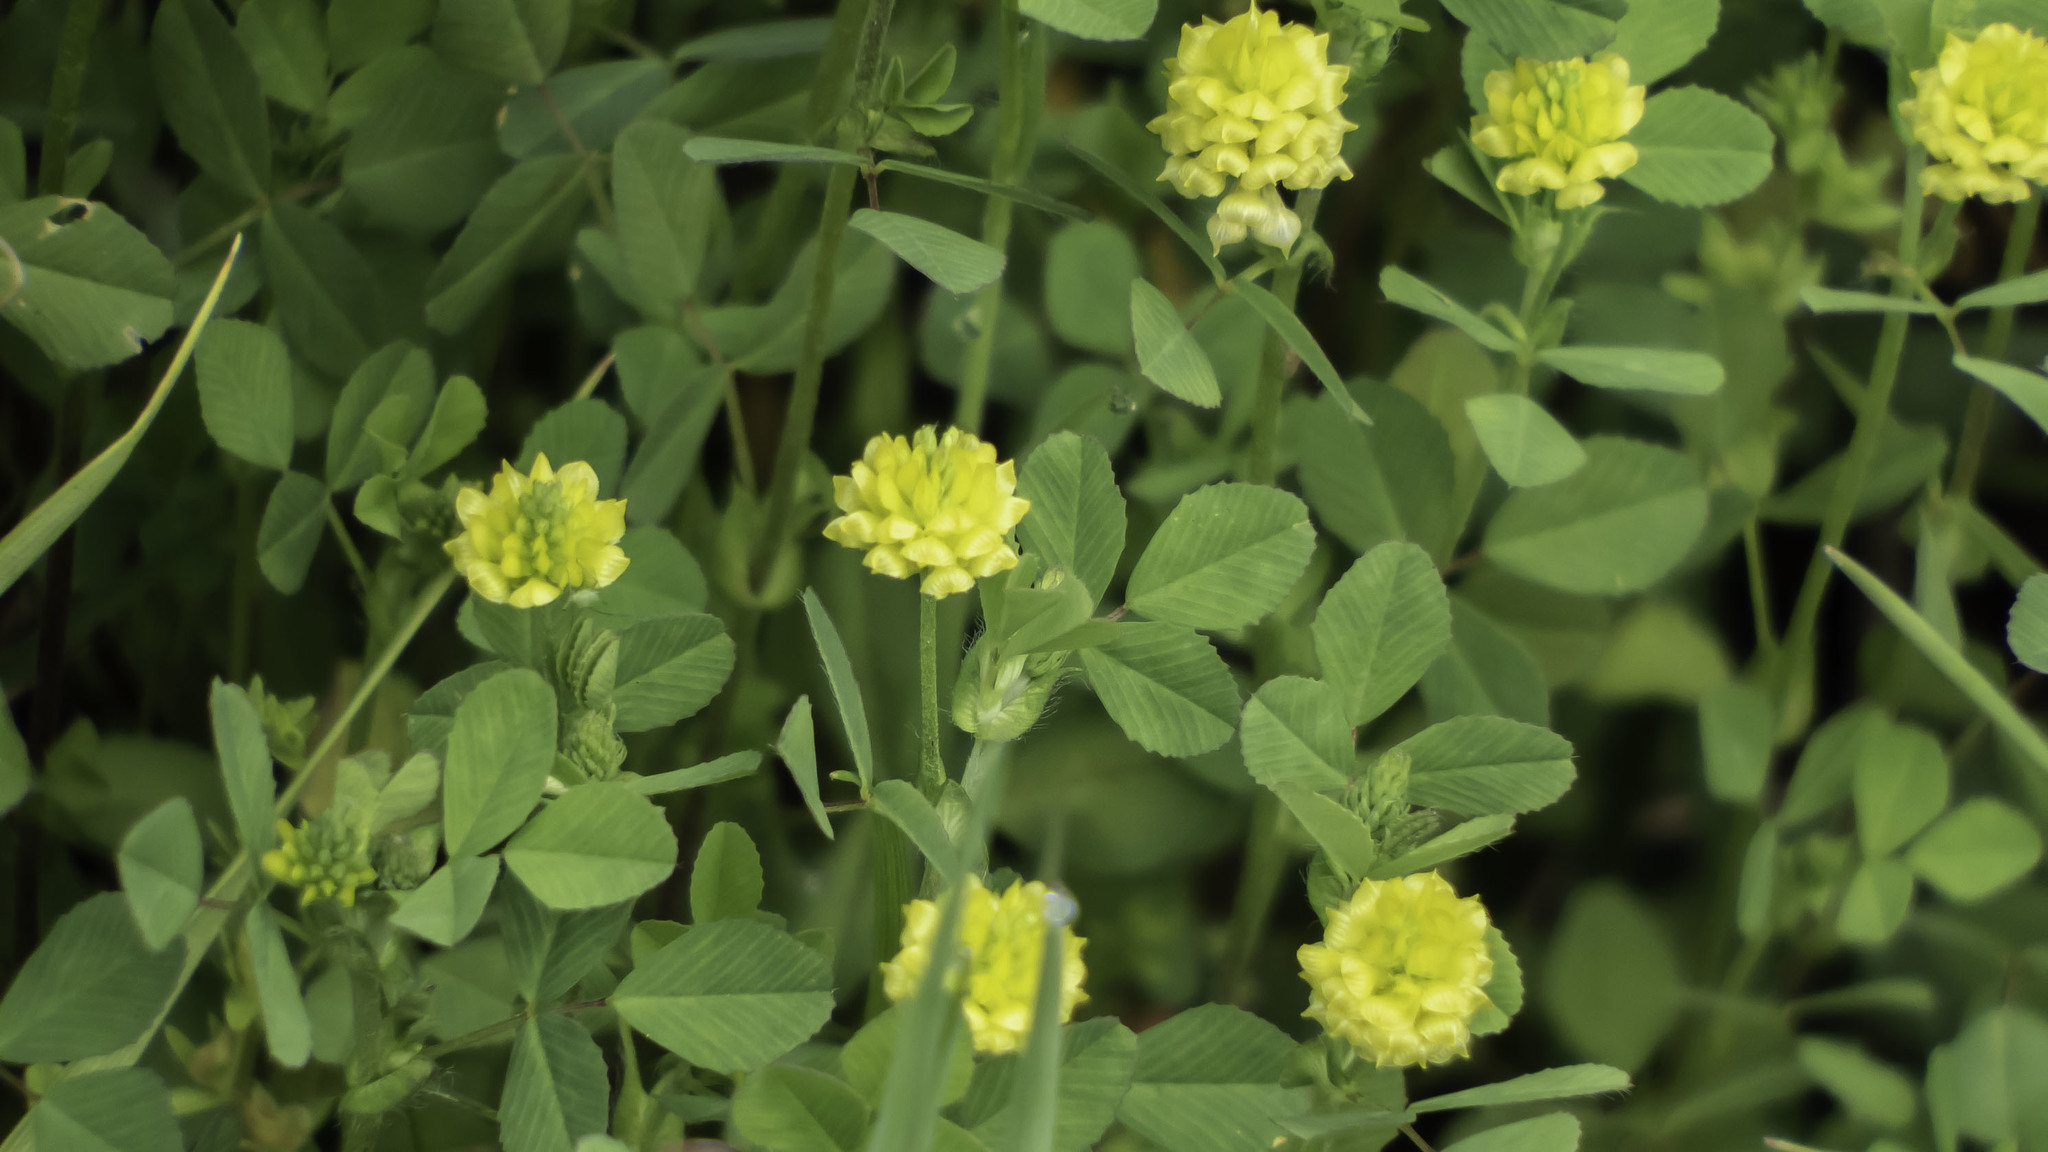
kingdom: Plantae
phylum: Tracheophyta
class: Magnoliopsida
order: Fabales
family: Fabaceae
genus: Trifolium
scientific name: Trifolium campestre
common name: Field clover
